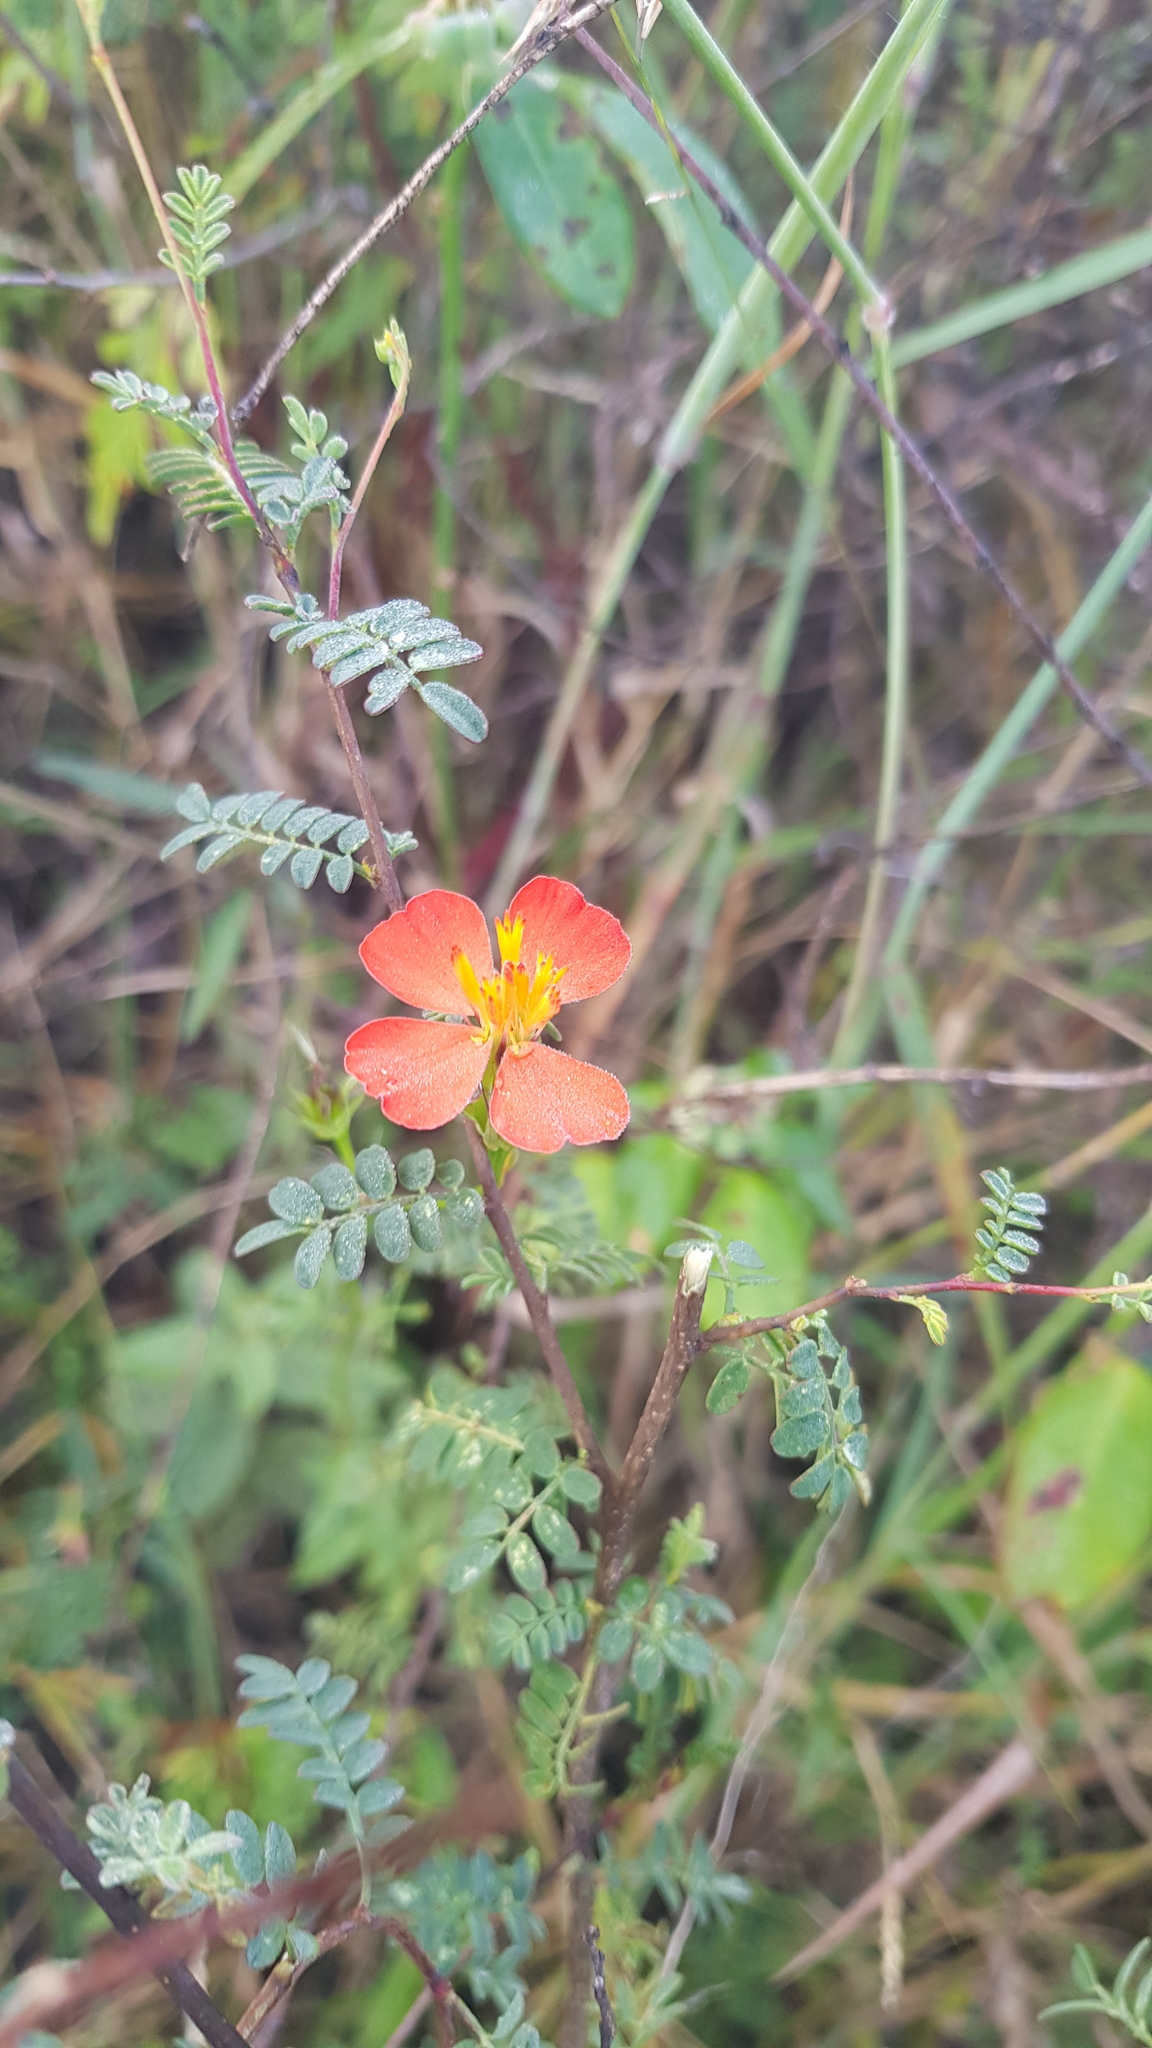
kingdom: Plantae
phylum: Tracheophyta
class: Magnoliopsida
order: Asterales
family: Asteraceae
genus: Adenophyllum
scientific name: Adenophyllum glandulosum
